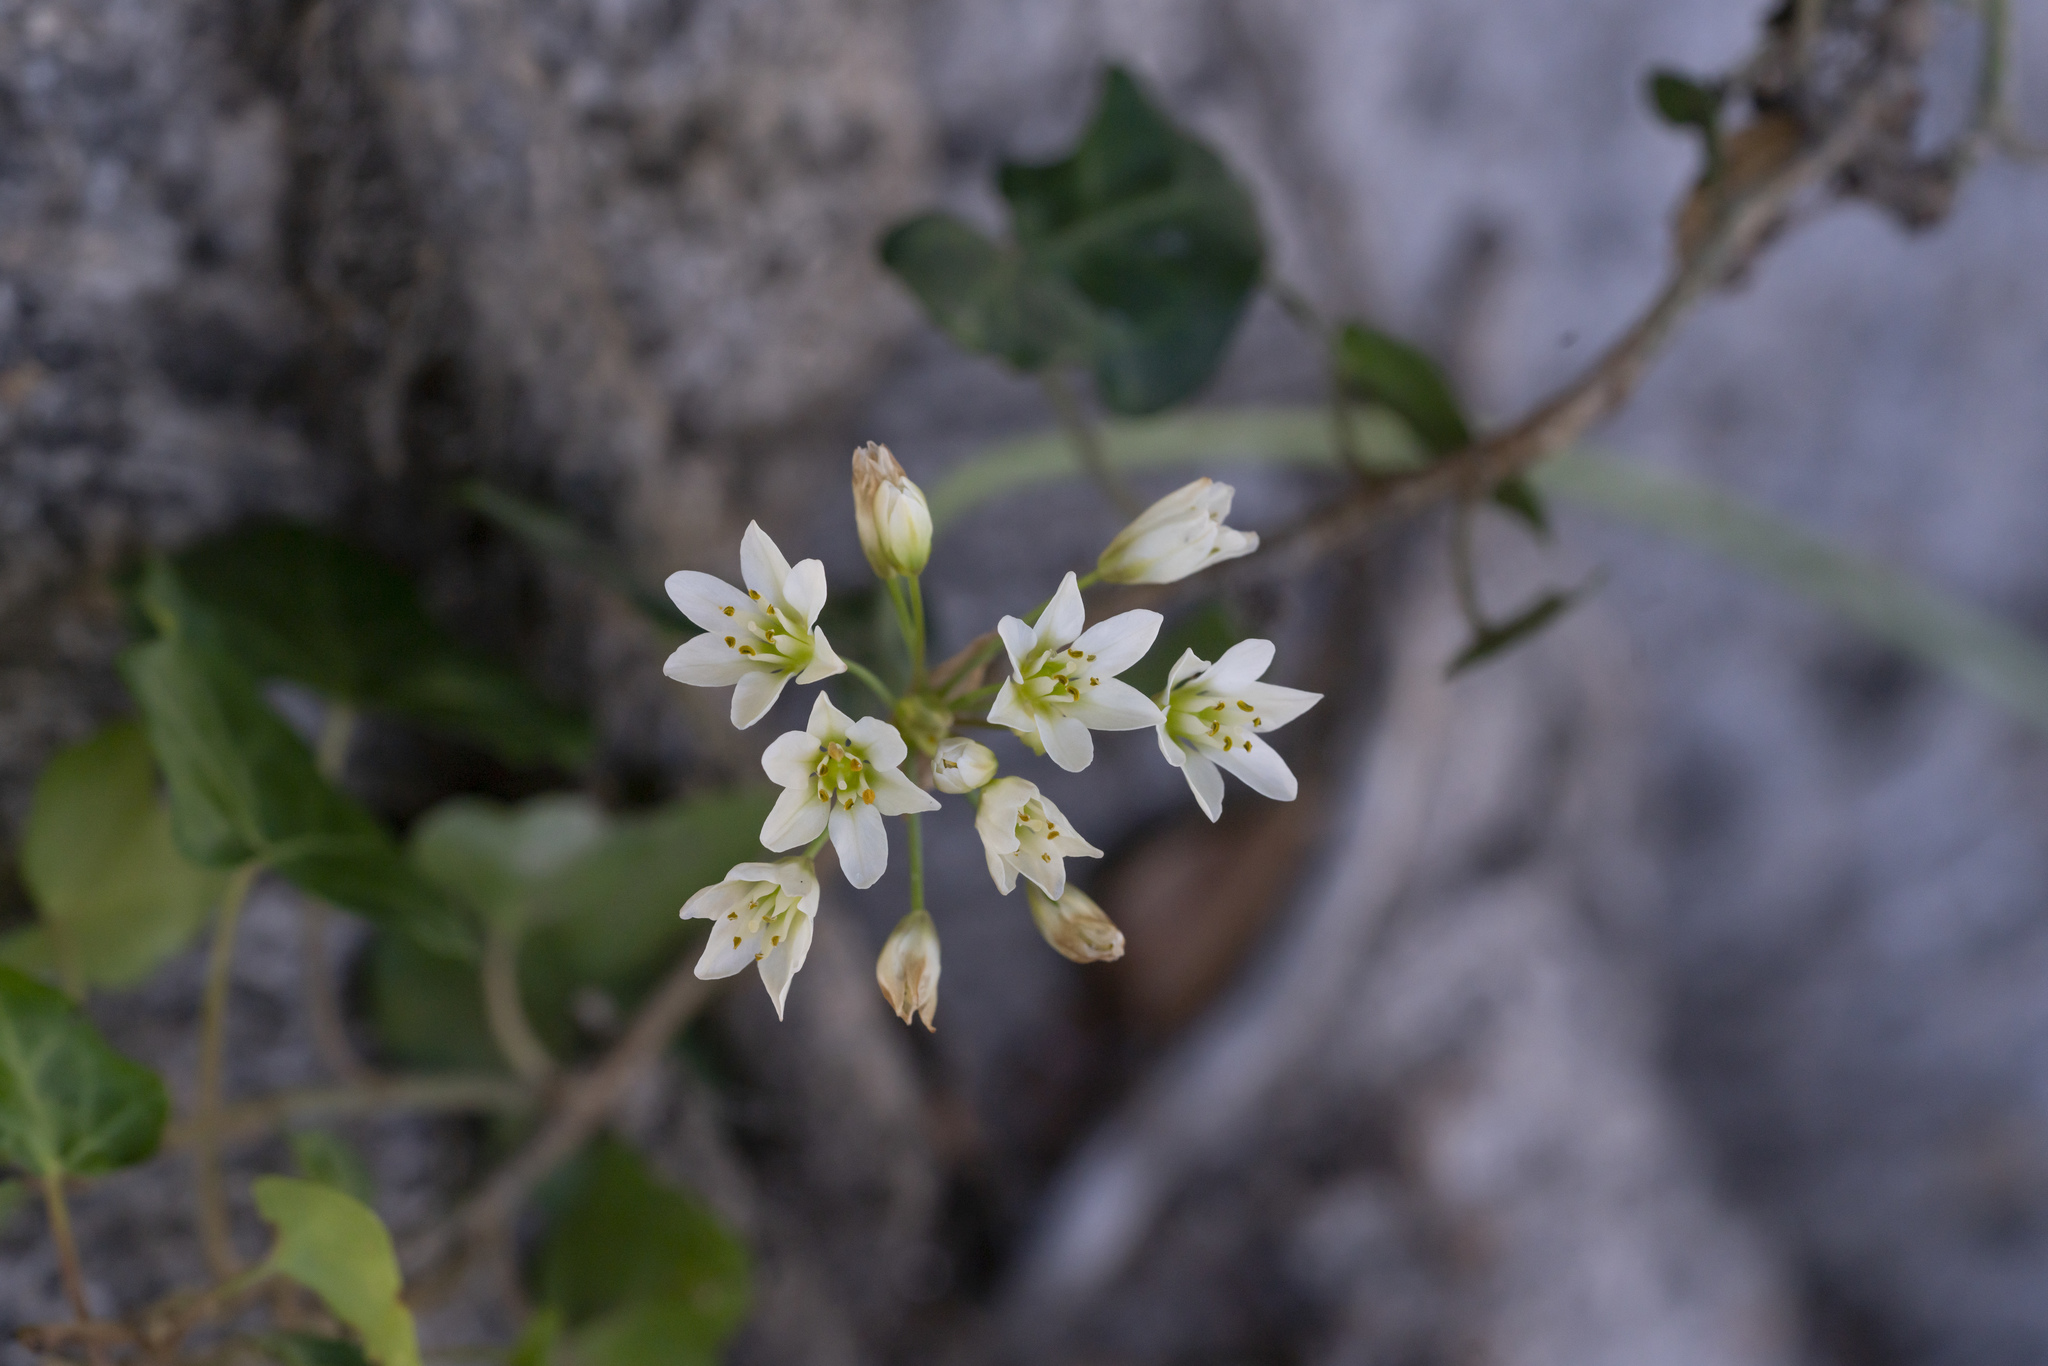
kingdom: Plantae
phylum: Tracheophyta
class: Liliopsida
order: Asparagales
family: Amaryllidaceae
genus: Nothoscordum
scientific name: Nothoscordum gracile
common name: Slender false garlic
